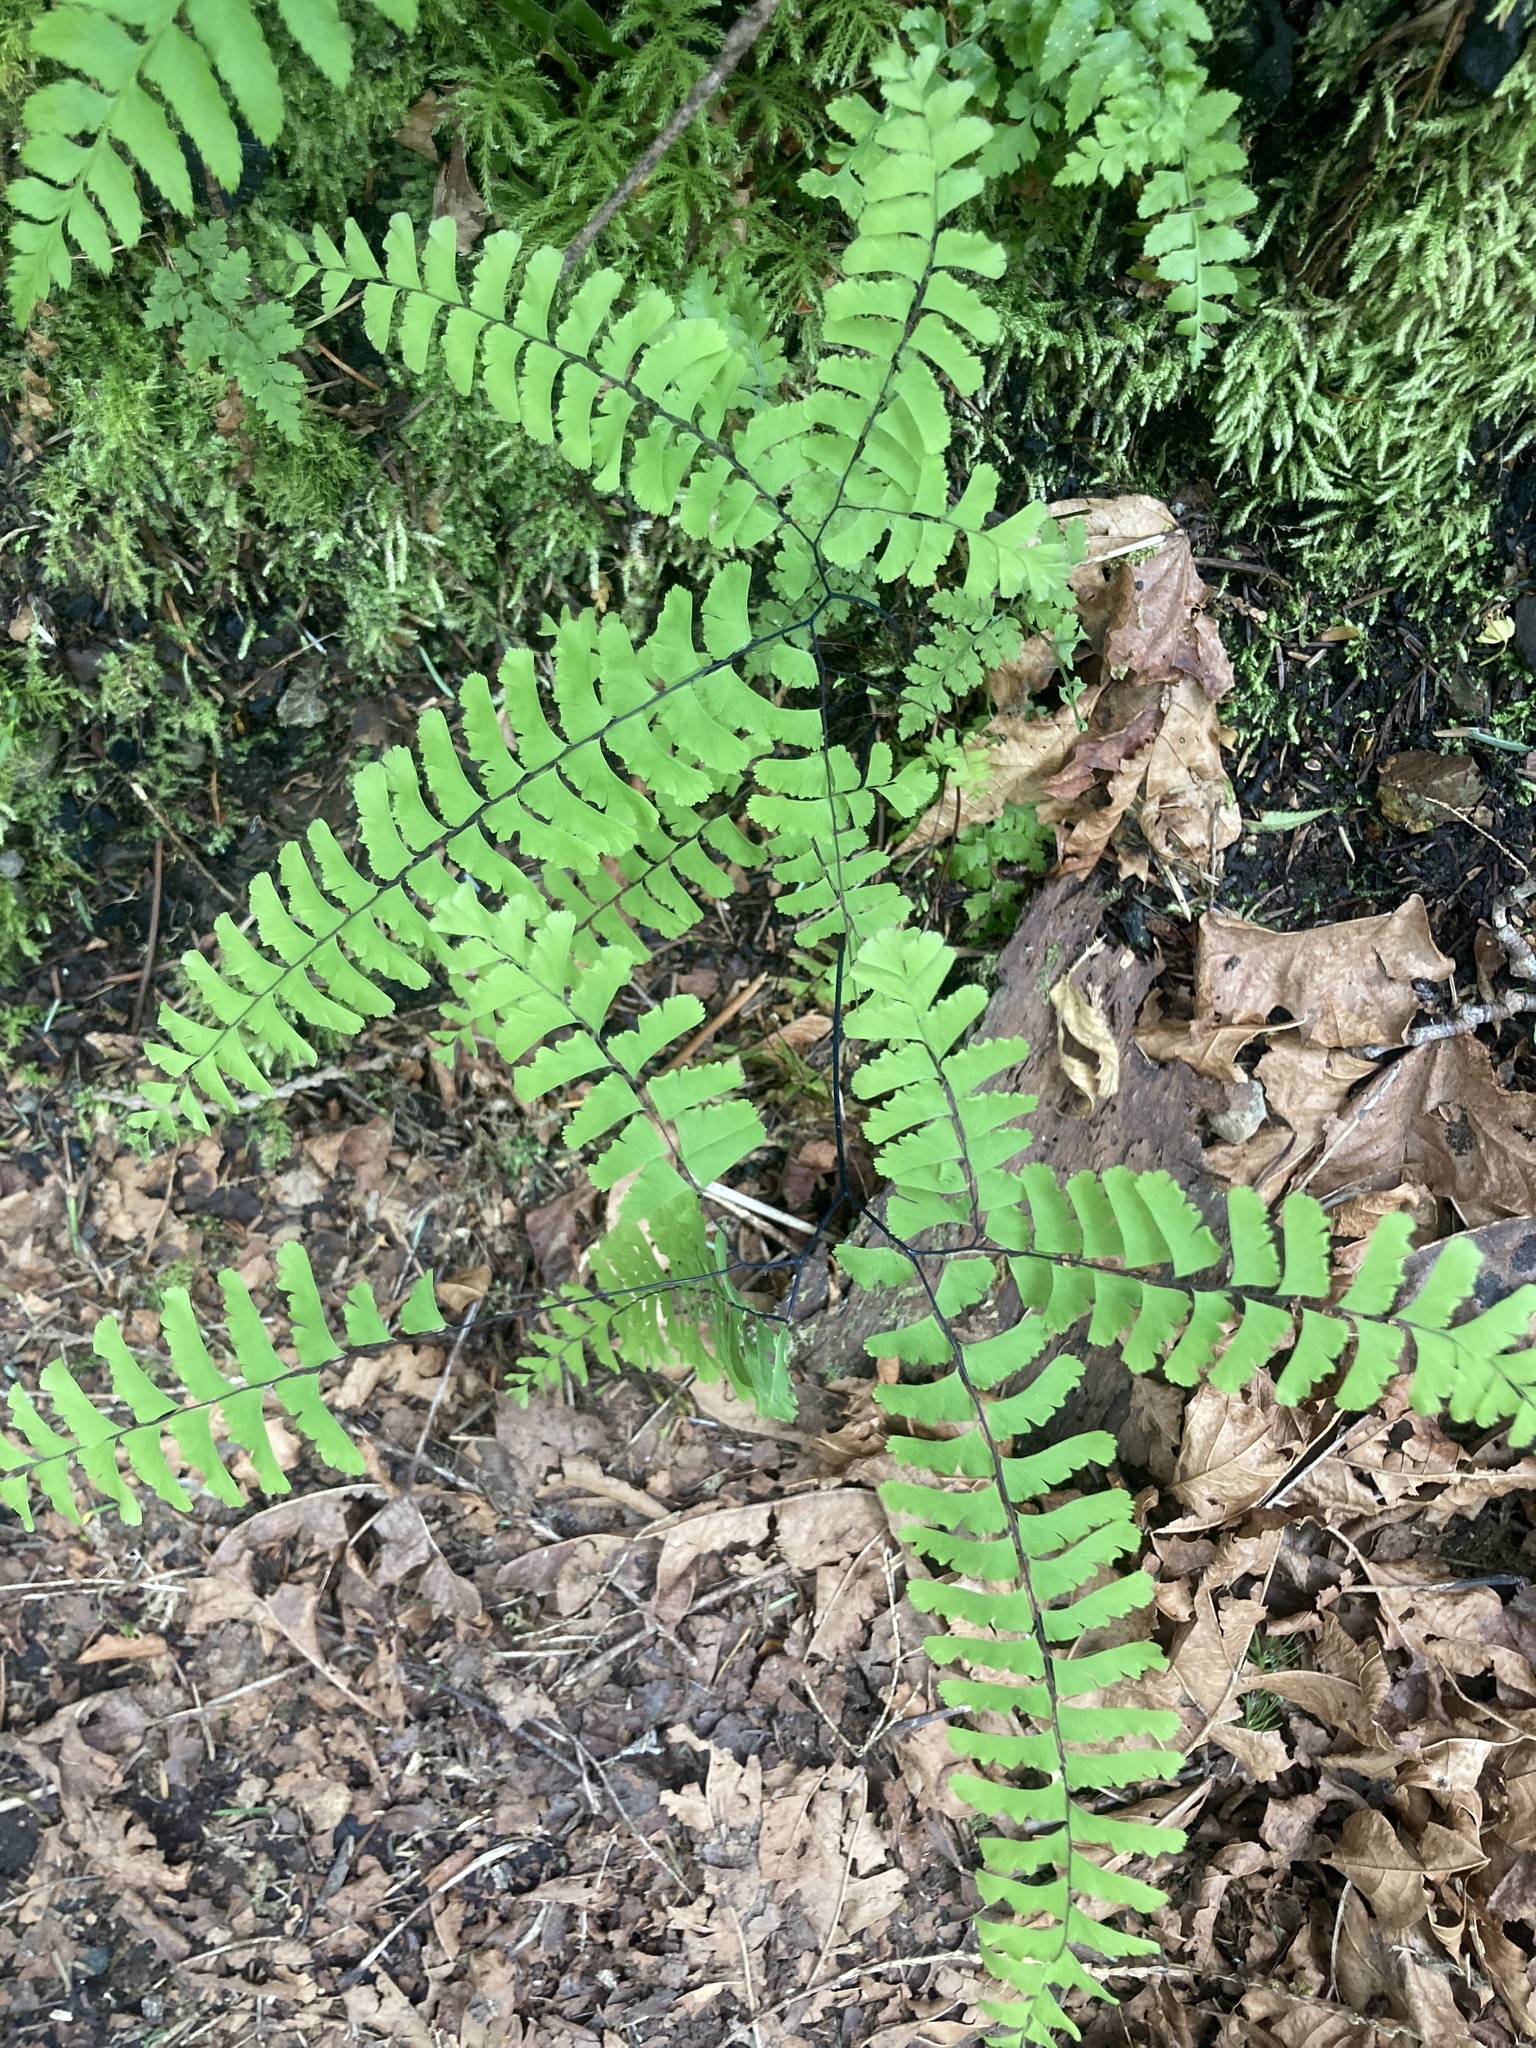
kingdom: Plantae
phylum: Tracheophyta
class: Polypodiopsida
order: Polypodiales
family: Pteridaceae
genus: Adiantum
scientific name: Adiantum aleuticum
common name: Aleutian maidenhair fern
